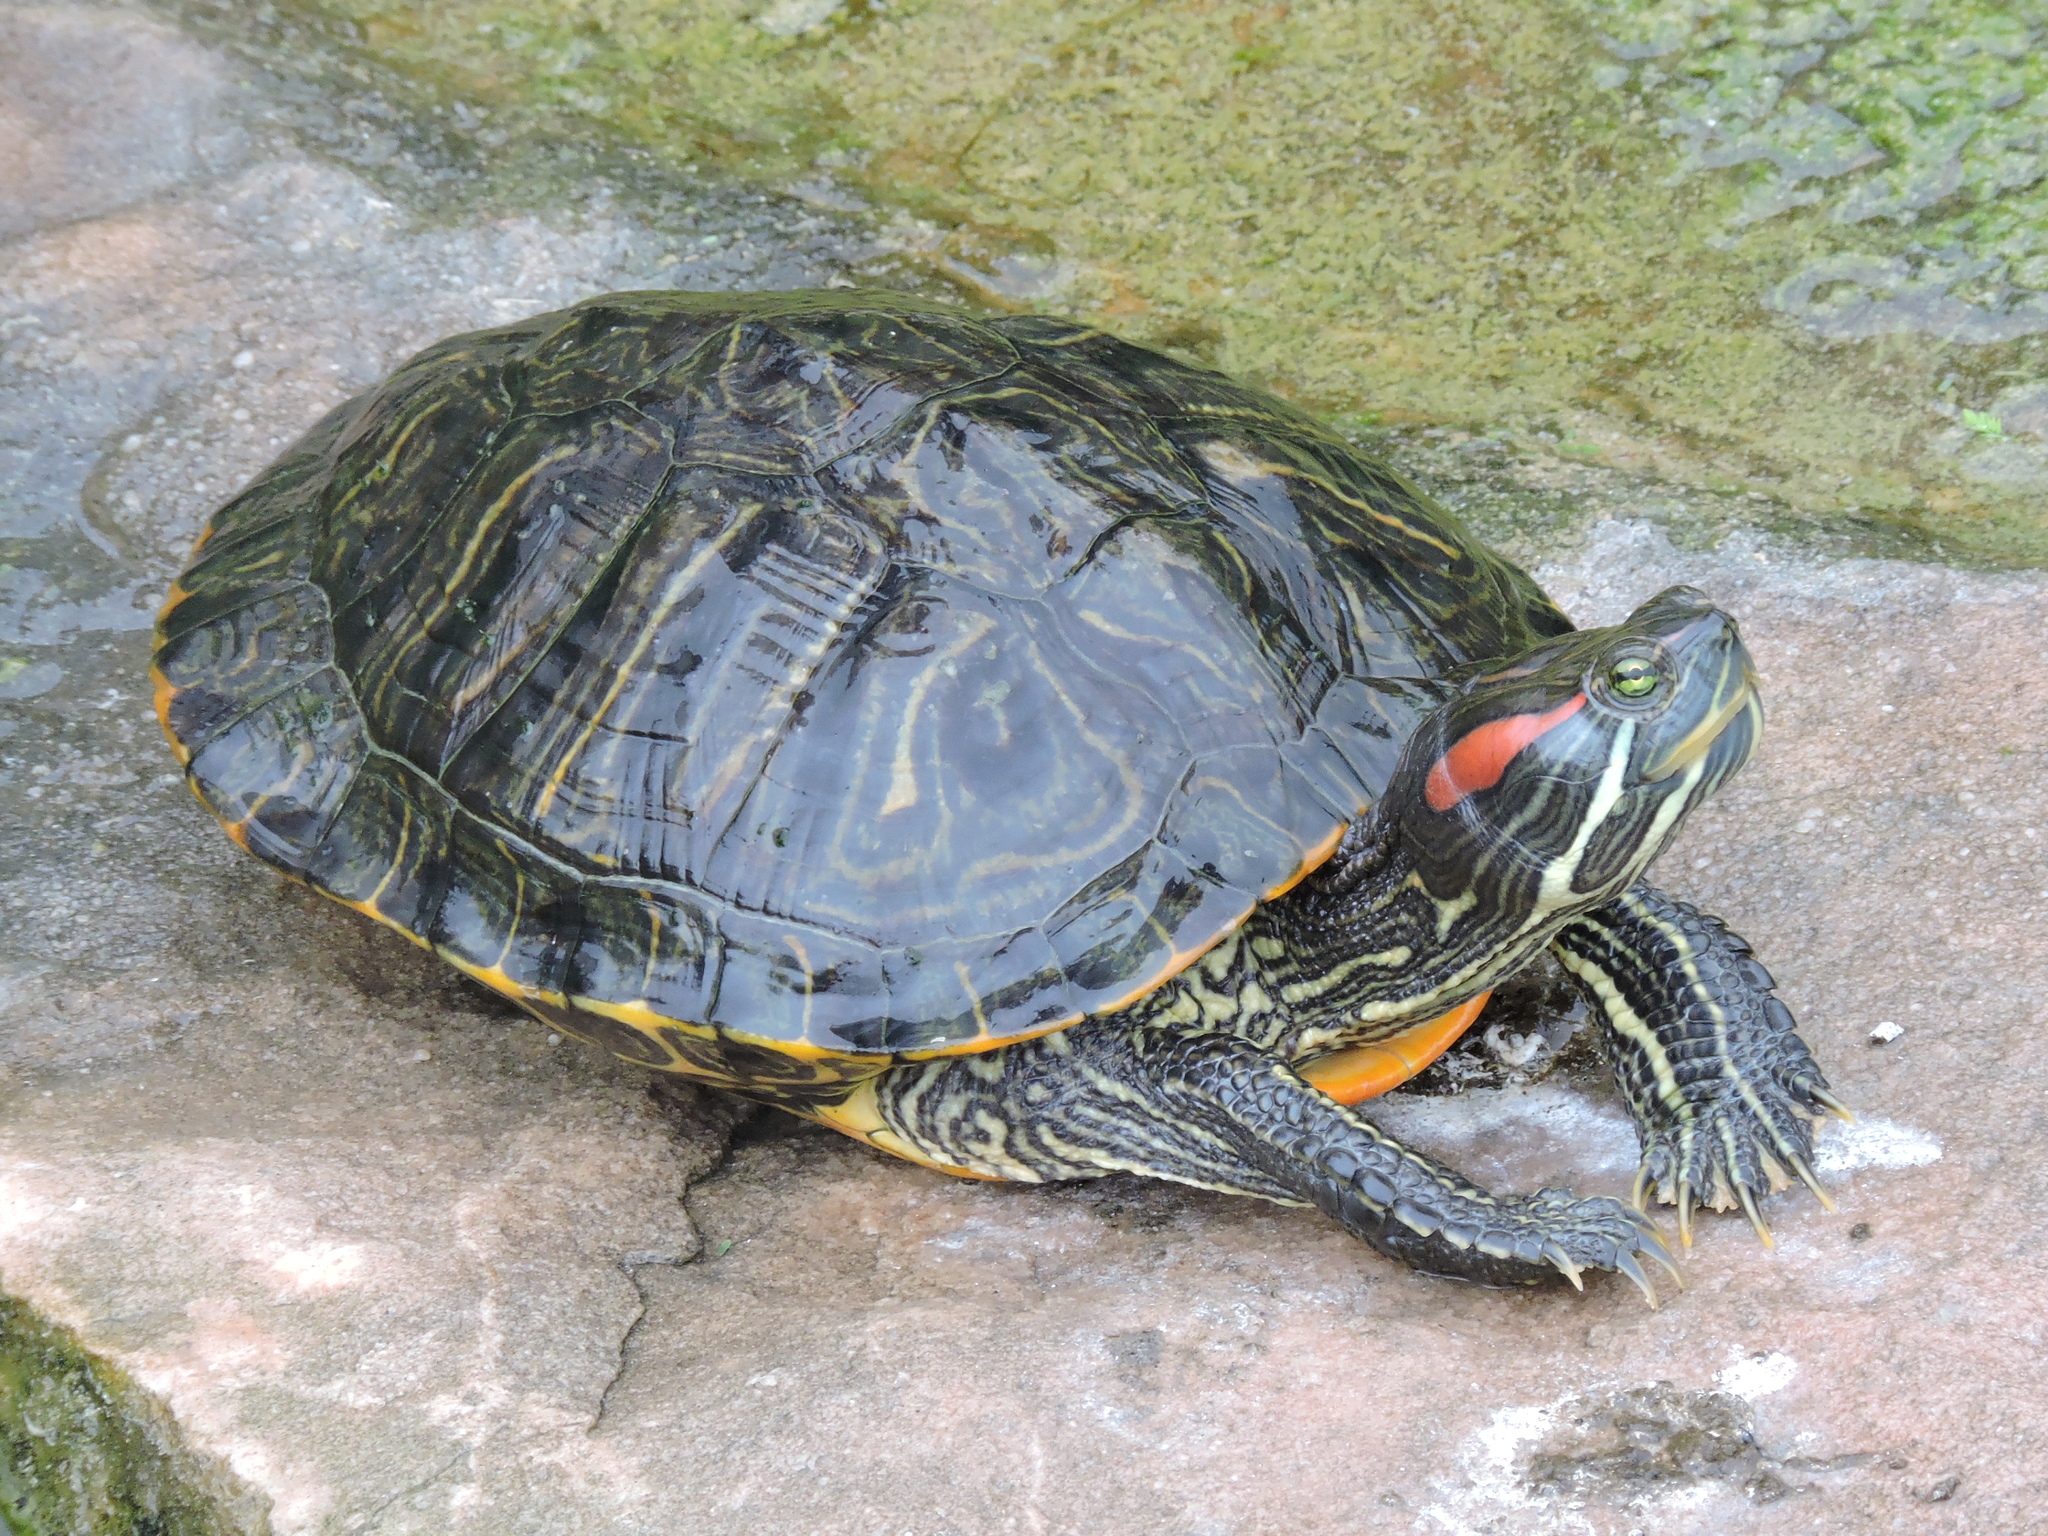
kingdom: Animalia
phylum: Chordata
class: Testudines
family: Emydidae
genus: Trachemys
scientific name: Trachemys scripta
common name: Slider
